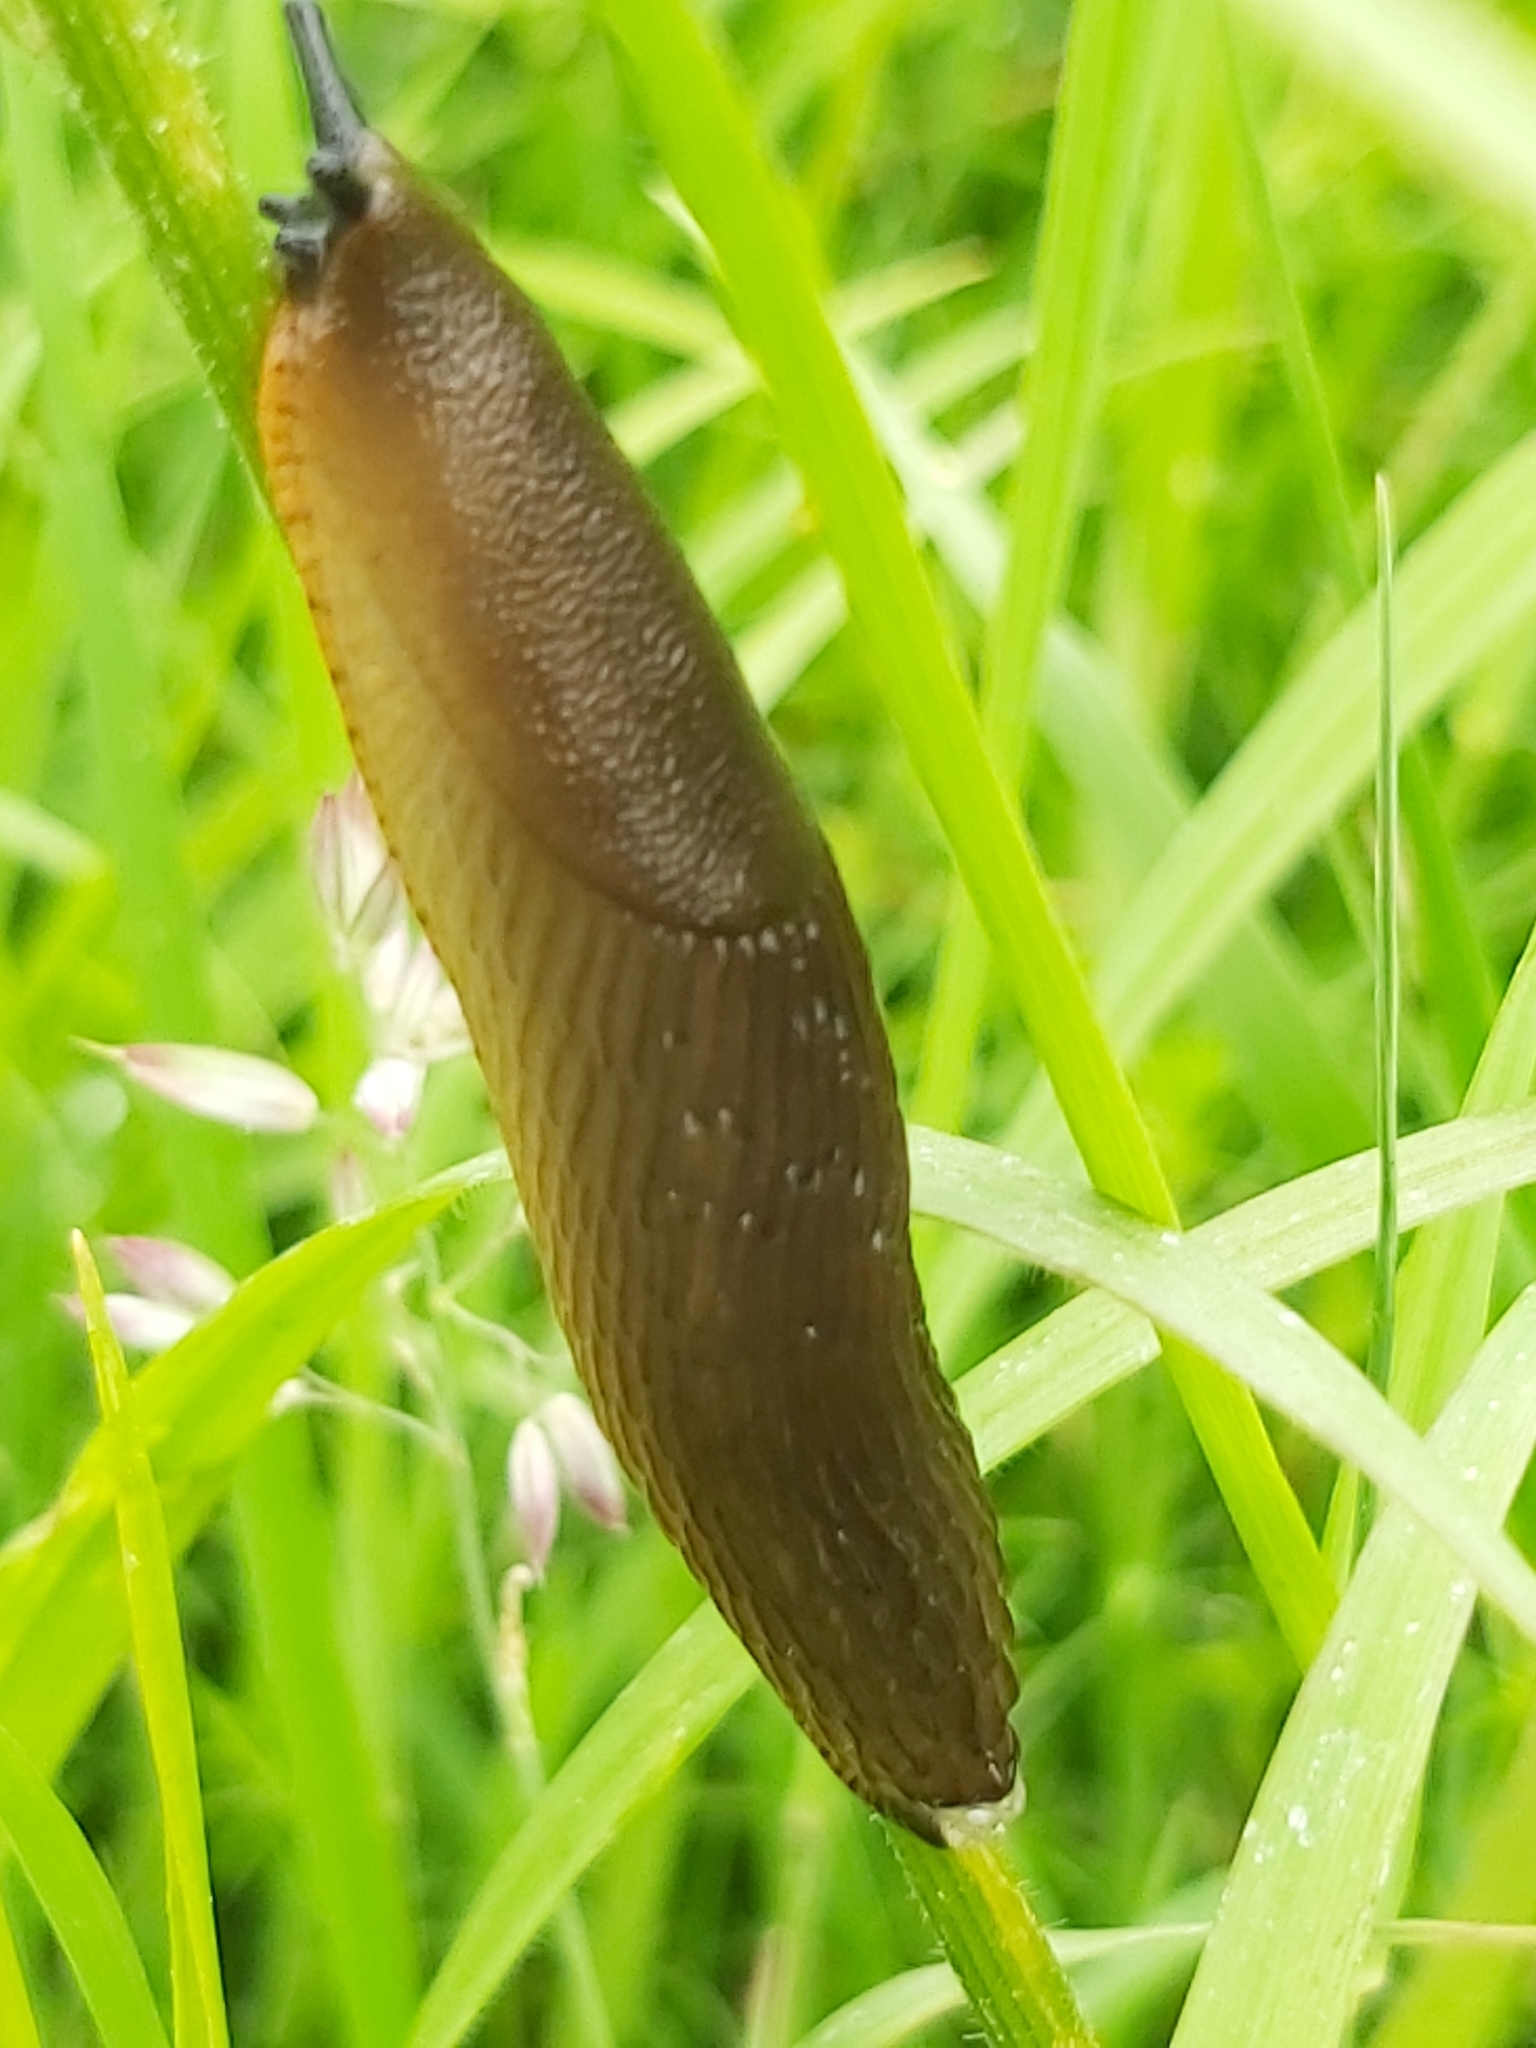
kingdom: Animalia
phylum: Mollusca
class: Gastropoda
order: Stylommatophora
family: Arionidae
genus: Arion
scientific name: Arion rufus
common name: Chocolate arion
